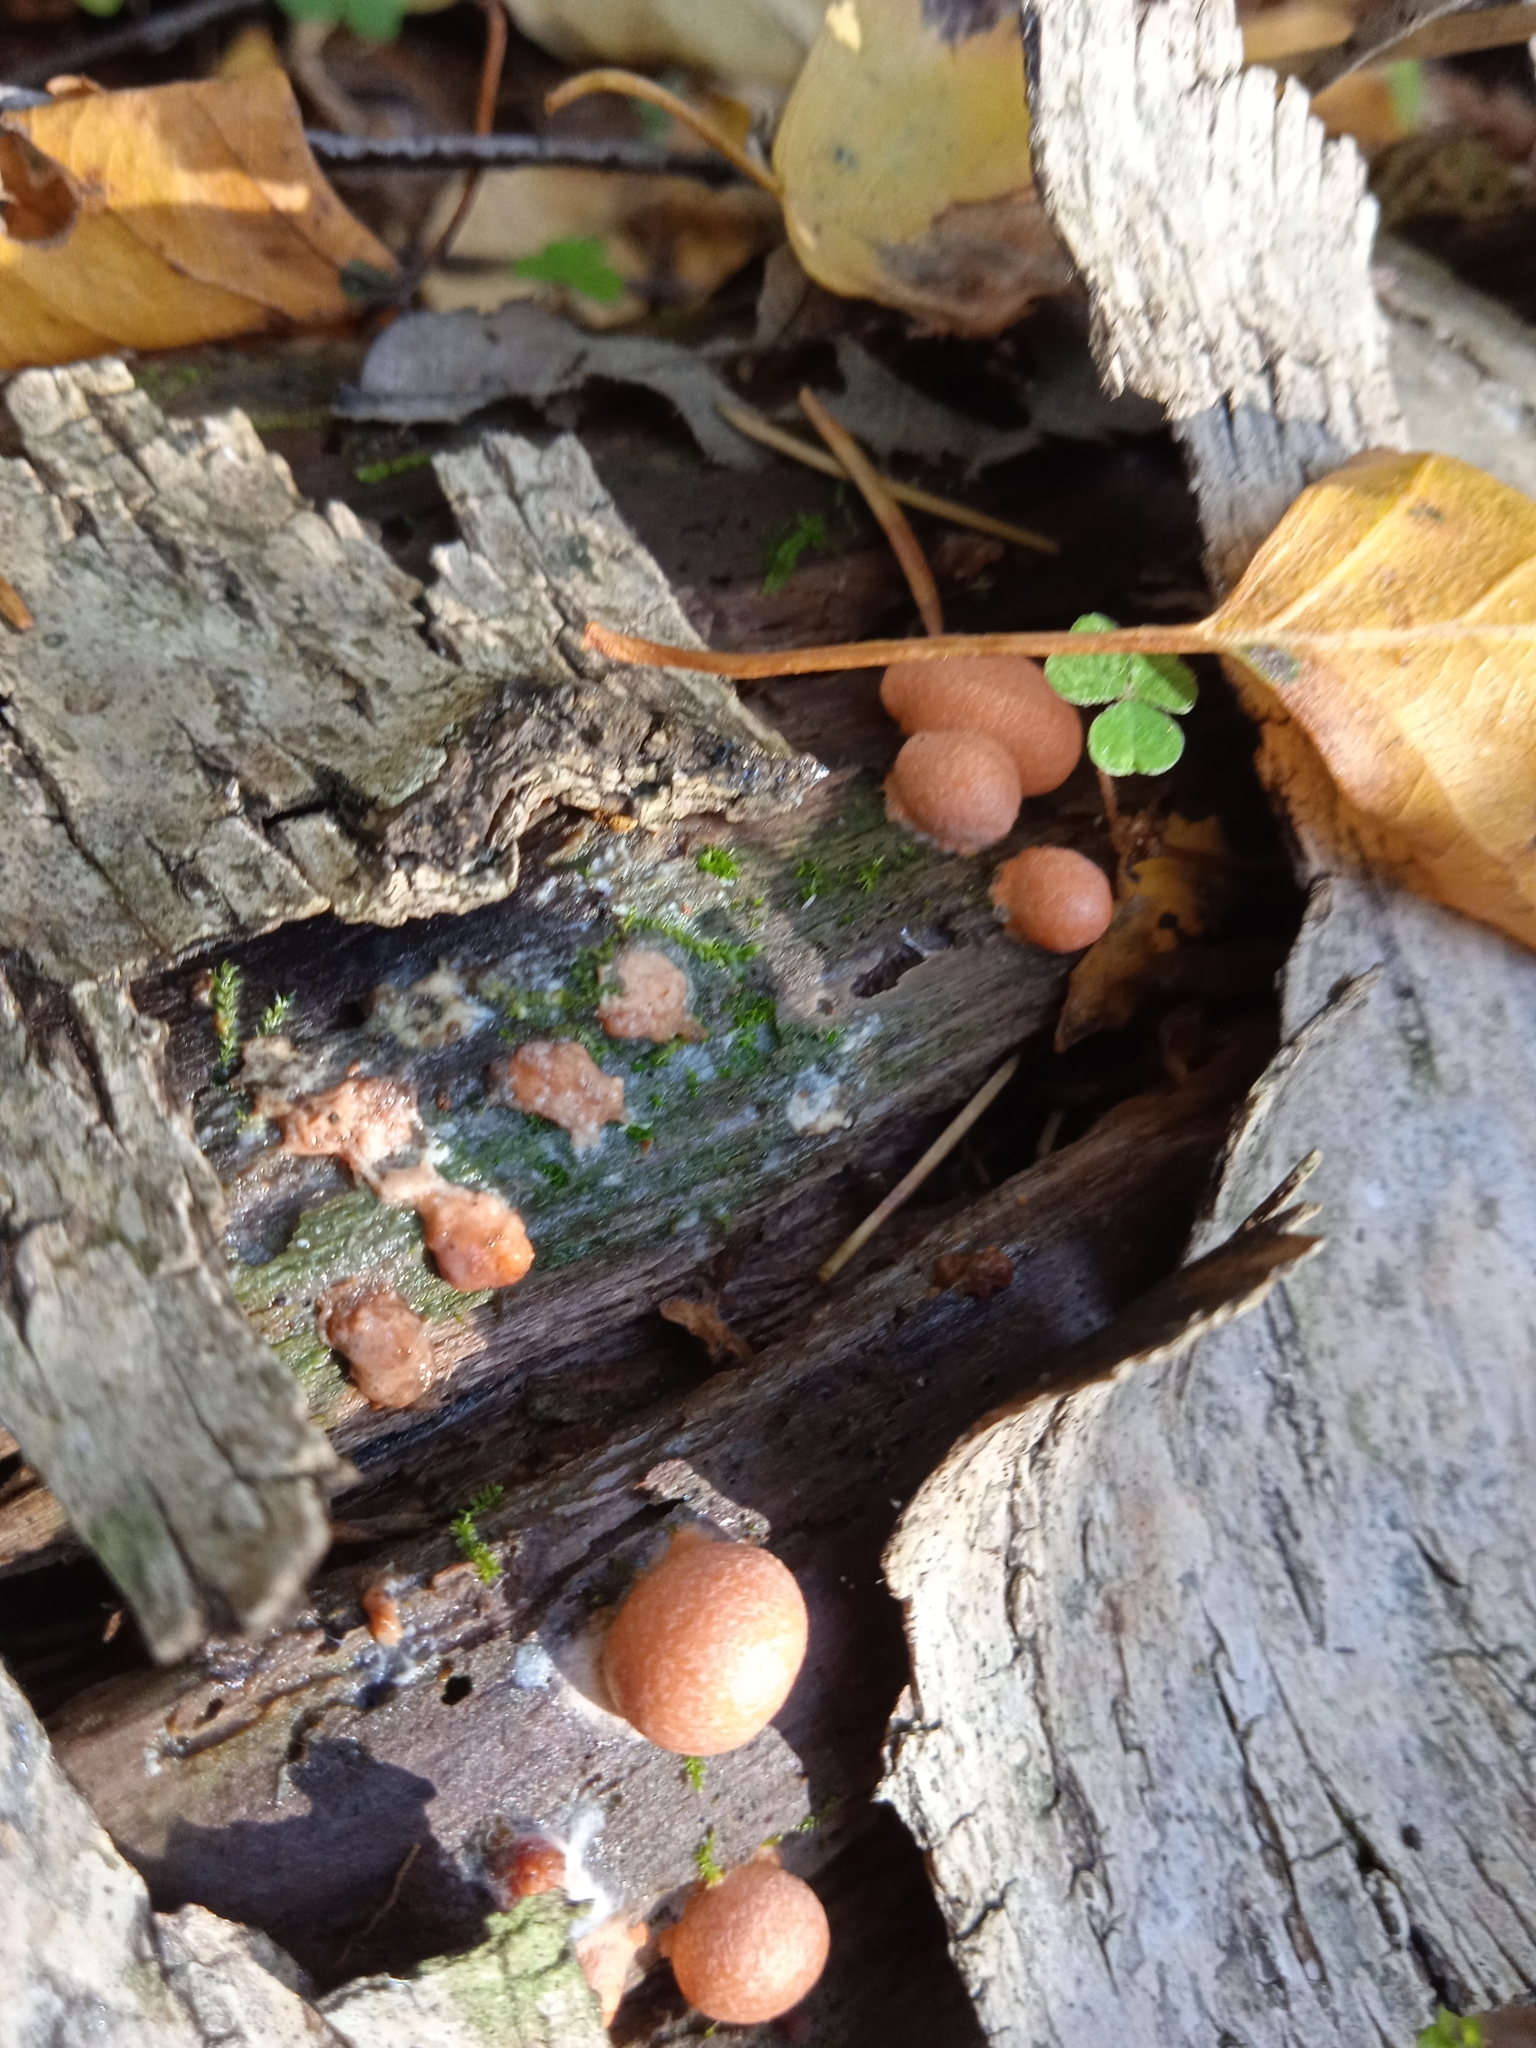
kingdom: Protozoa
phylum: Mycetozoa
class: Myxomycetes
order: Cribrariales
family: Tubiferaceae
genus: Lycogala
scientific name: Lycogala epidendrum
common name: Wolf's milk
